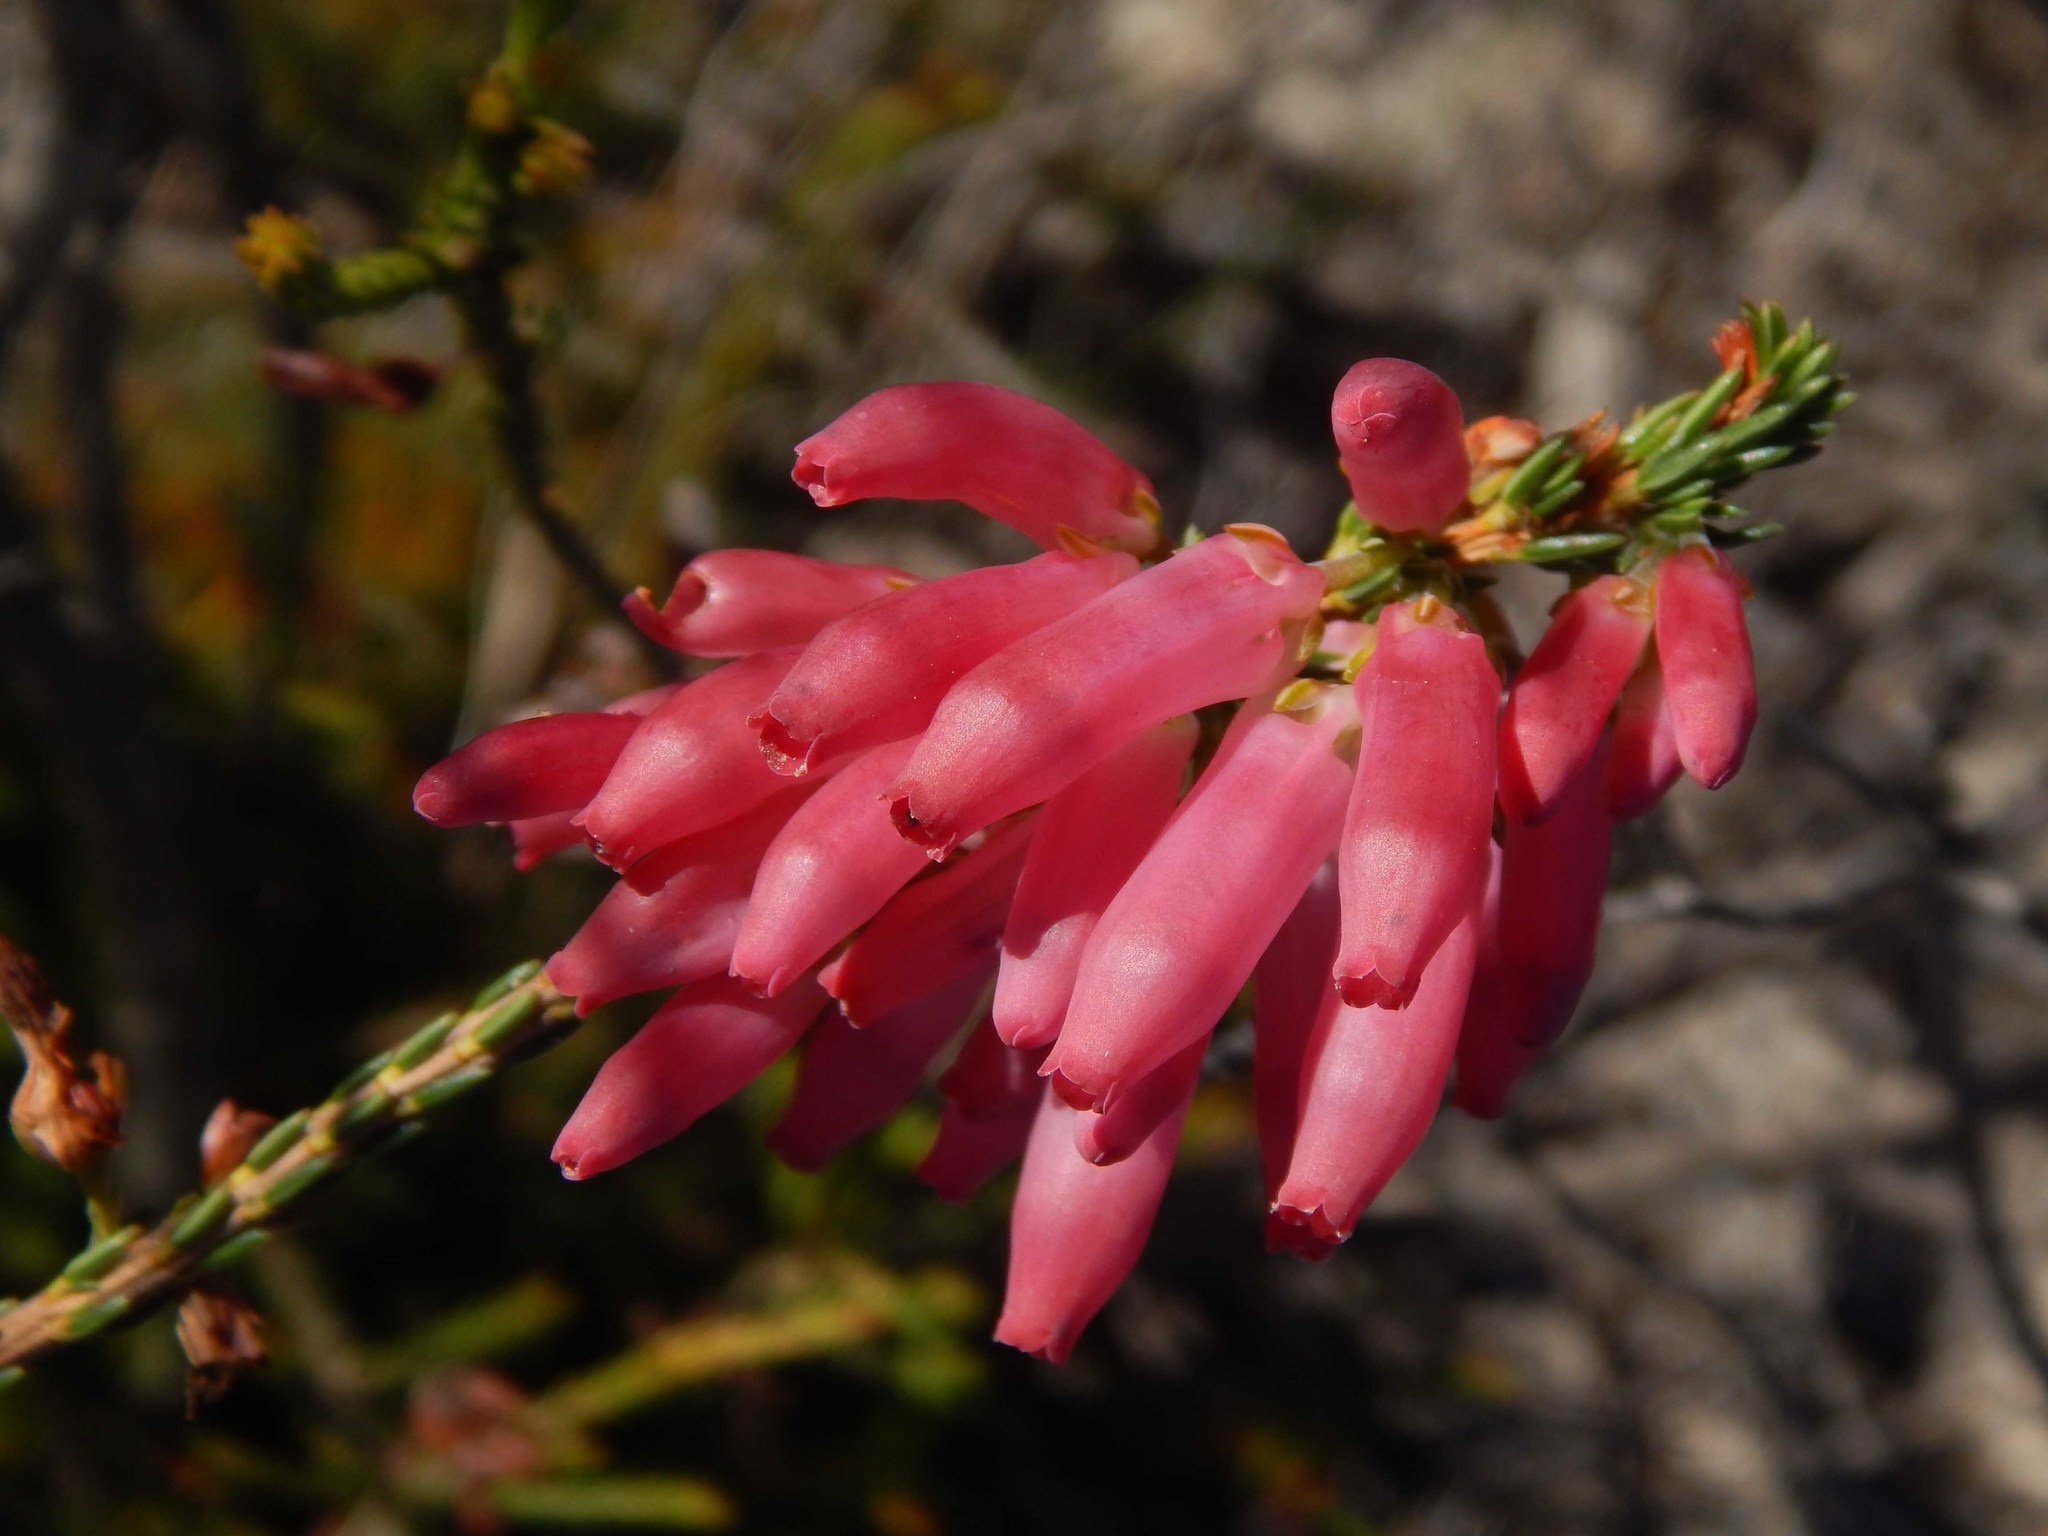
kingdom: Plantae
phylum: Tracheophyta
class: Magnoliopsida
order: Ericales
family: Ericaceae
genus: Erica
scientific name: Erica mammosa
